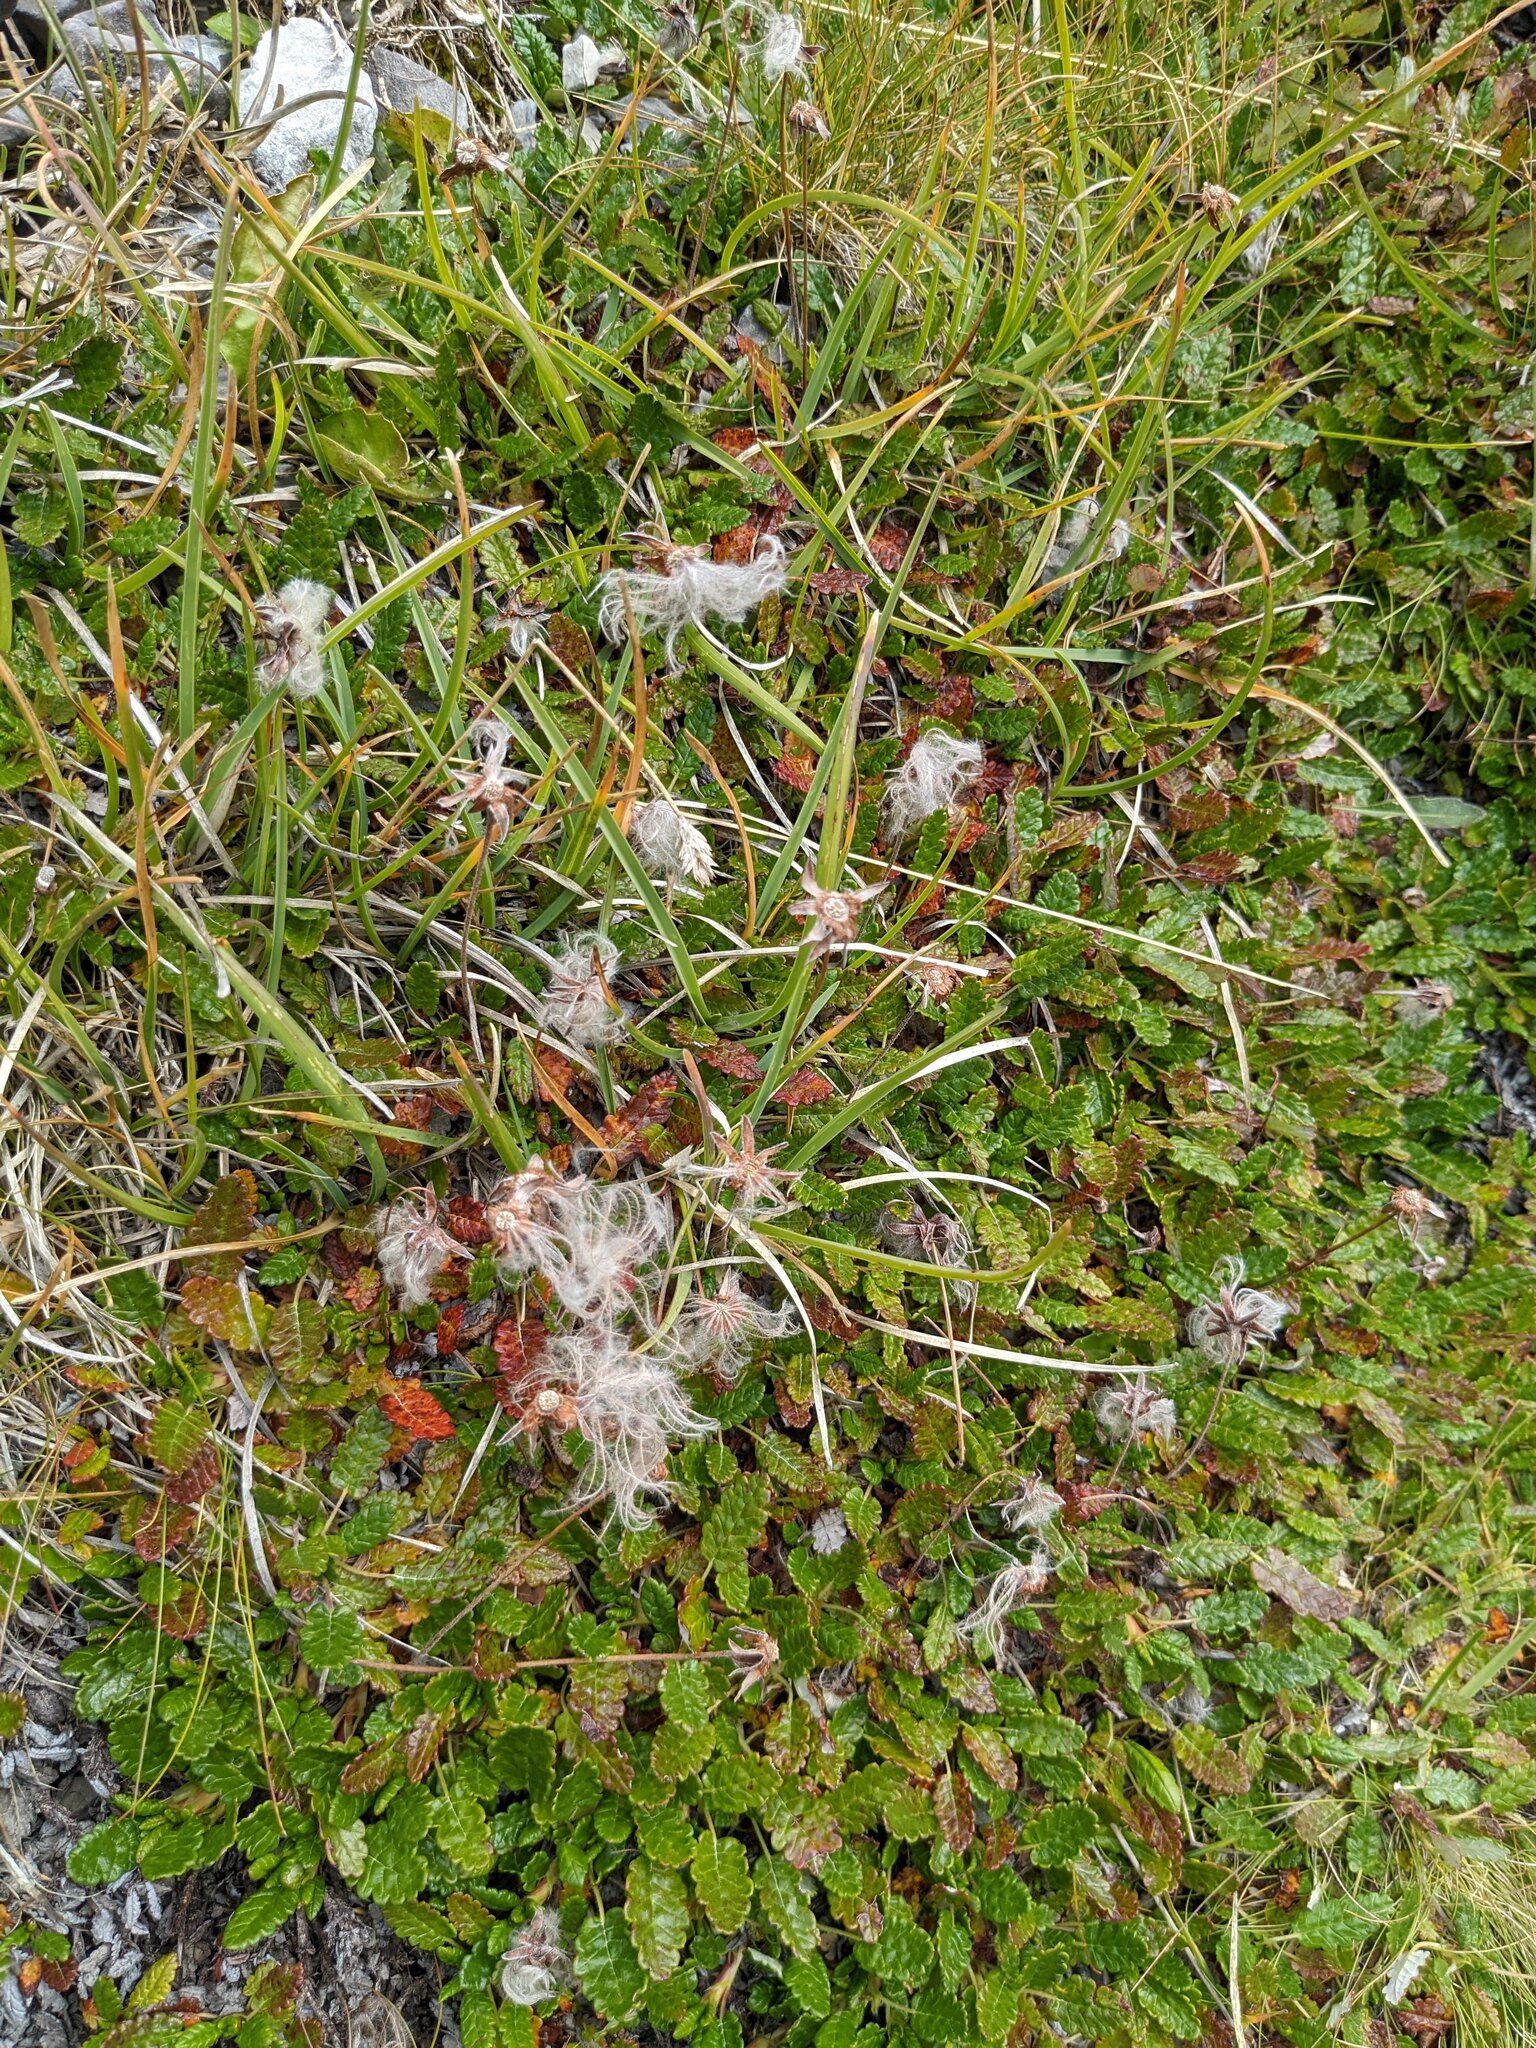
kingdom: Plantae
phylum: Tracheophyta
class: Magnoliopsida
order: Rosales
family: Rosaceae
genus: Dryas
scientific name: Dryas octopetala
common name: Eight-petal mountain-avens
